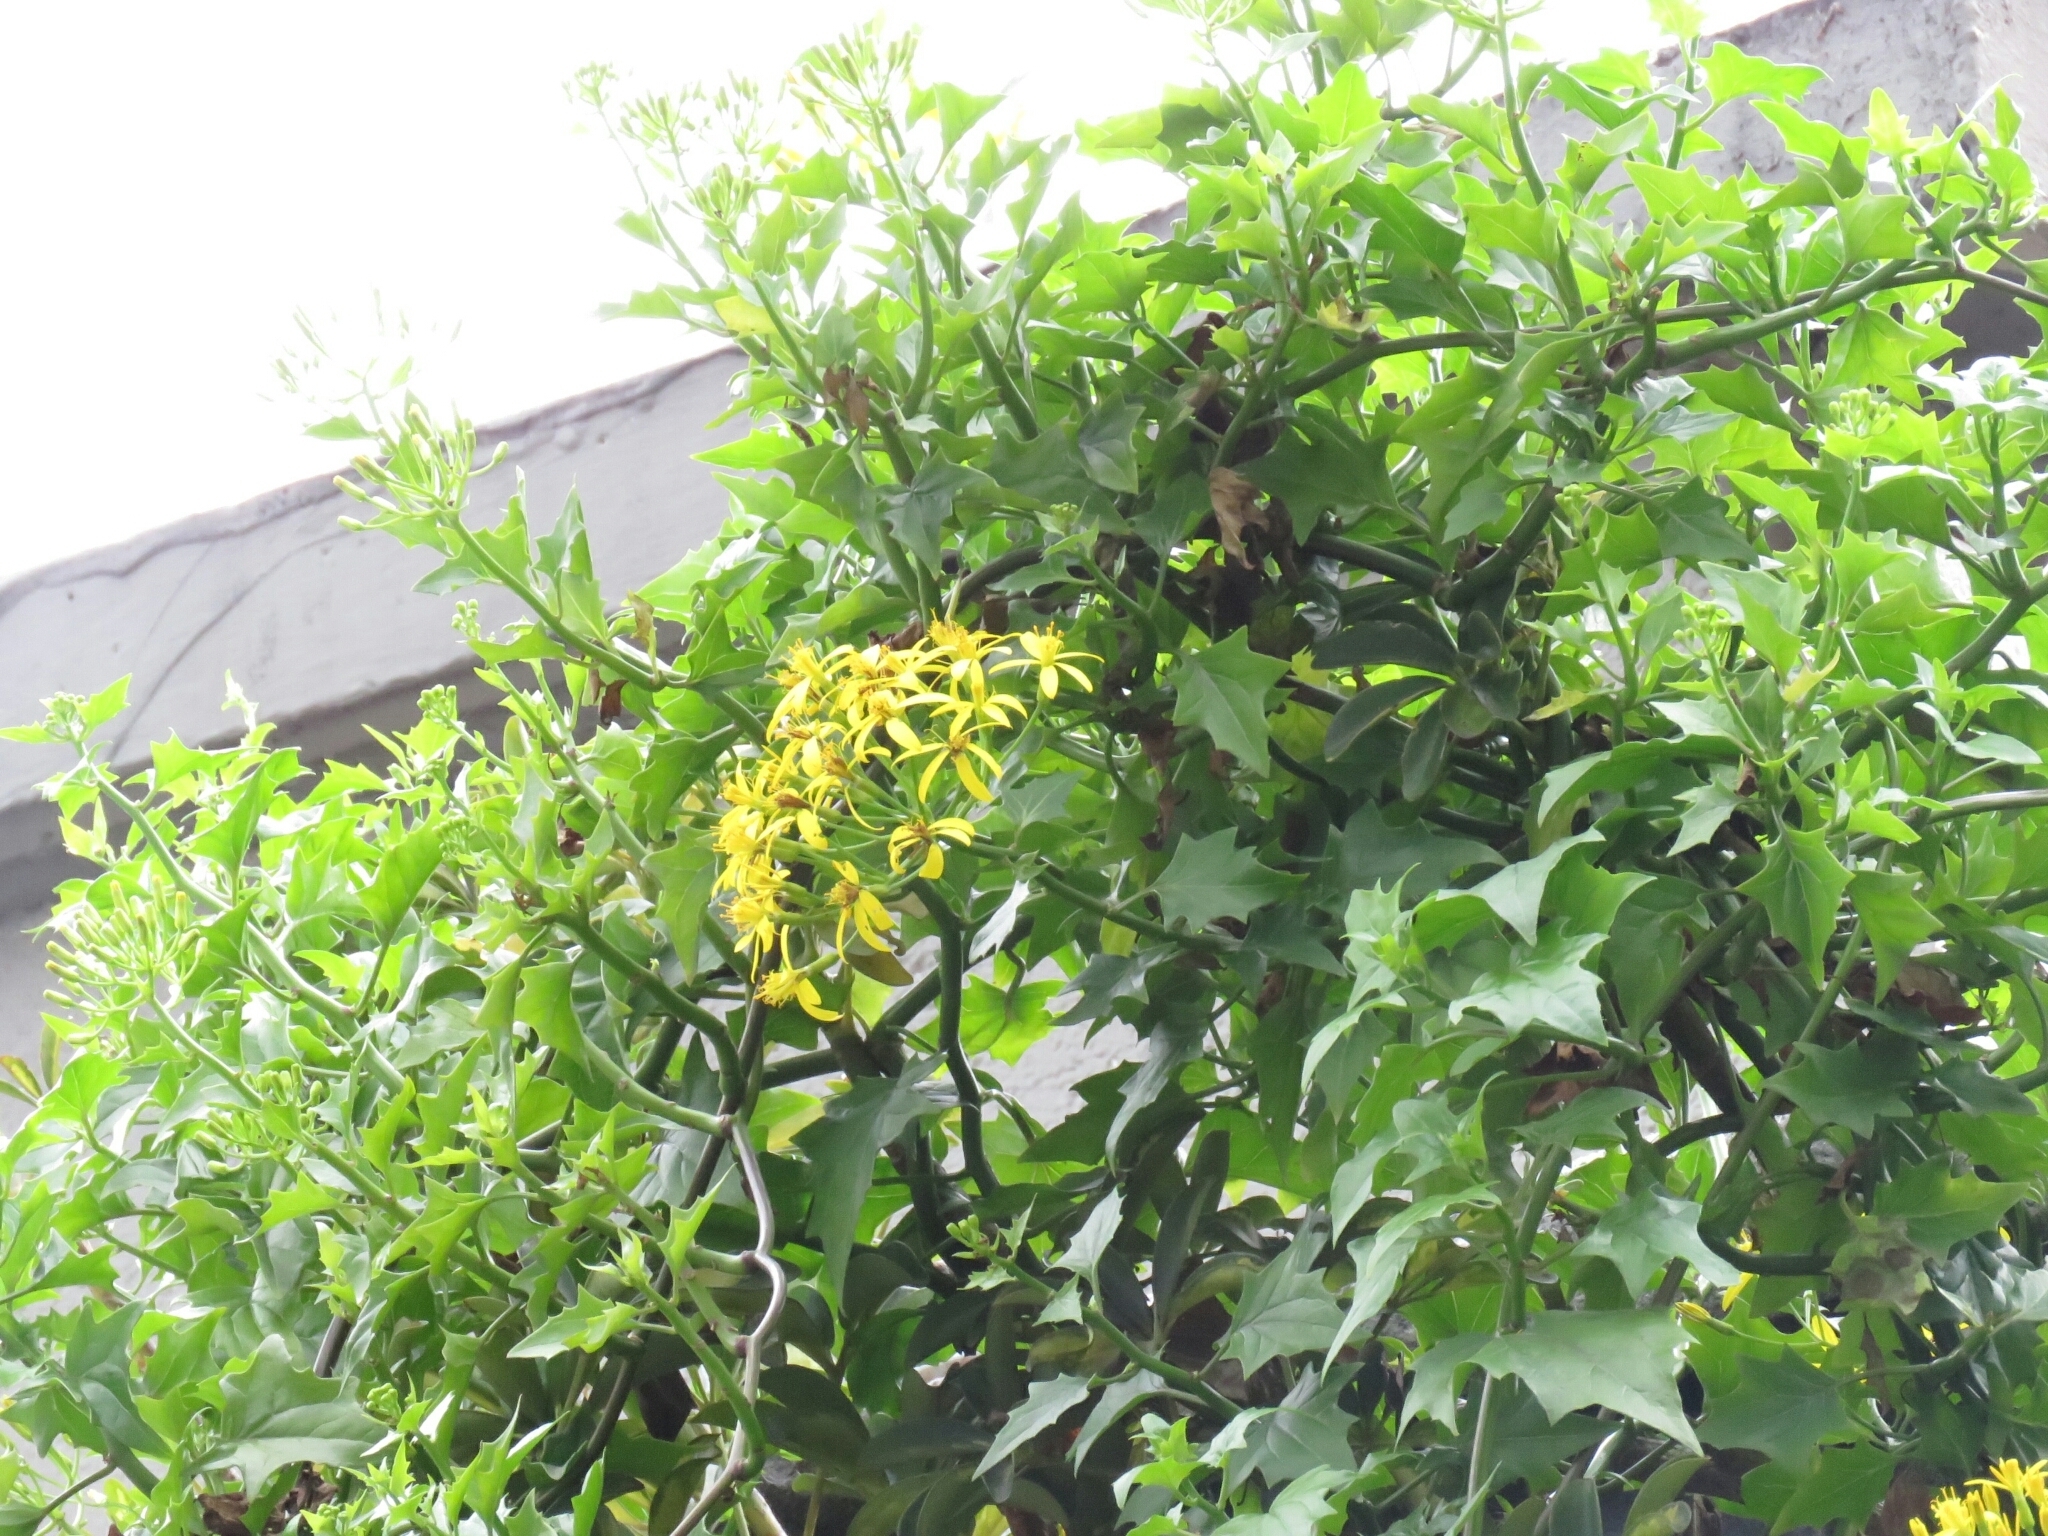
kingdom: Plantae
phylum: Tracheophyta
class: Magnoliopsida
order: Asterales
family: Asteraceae
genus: Senecio
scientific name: Senecio tamoides
